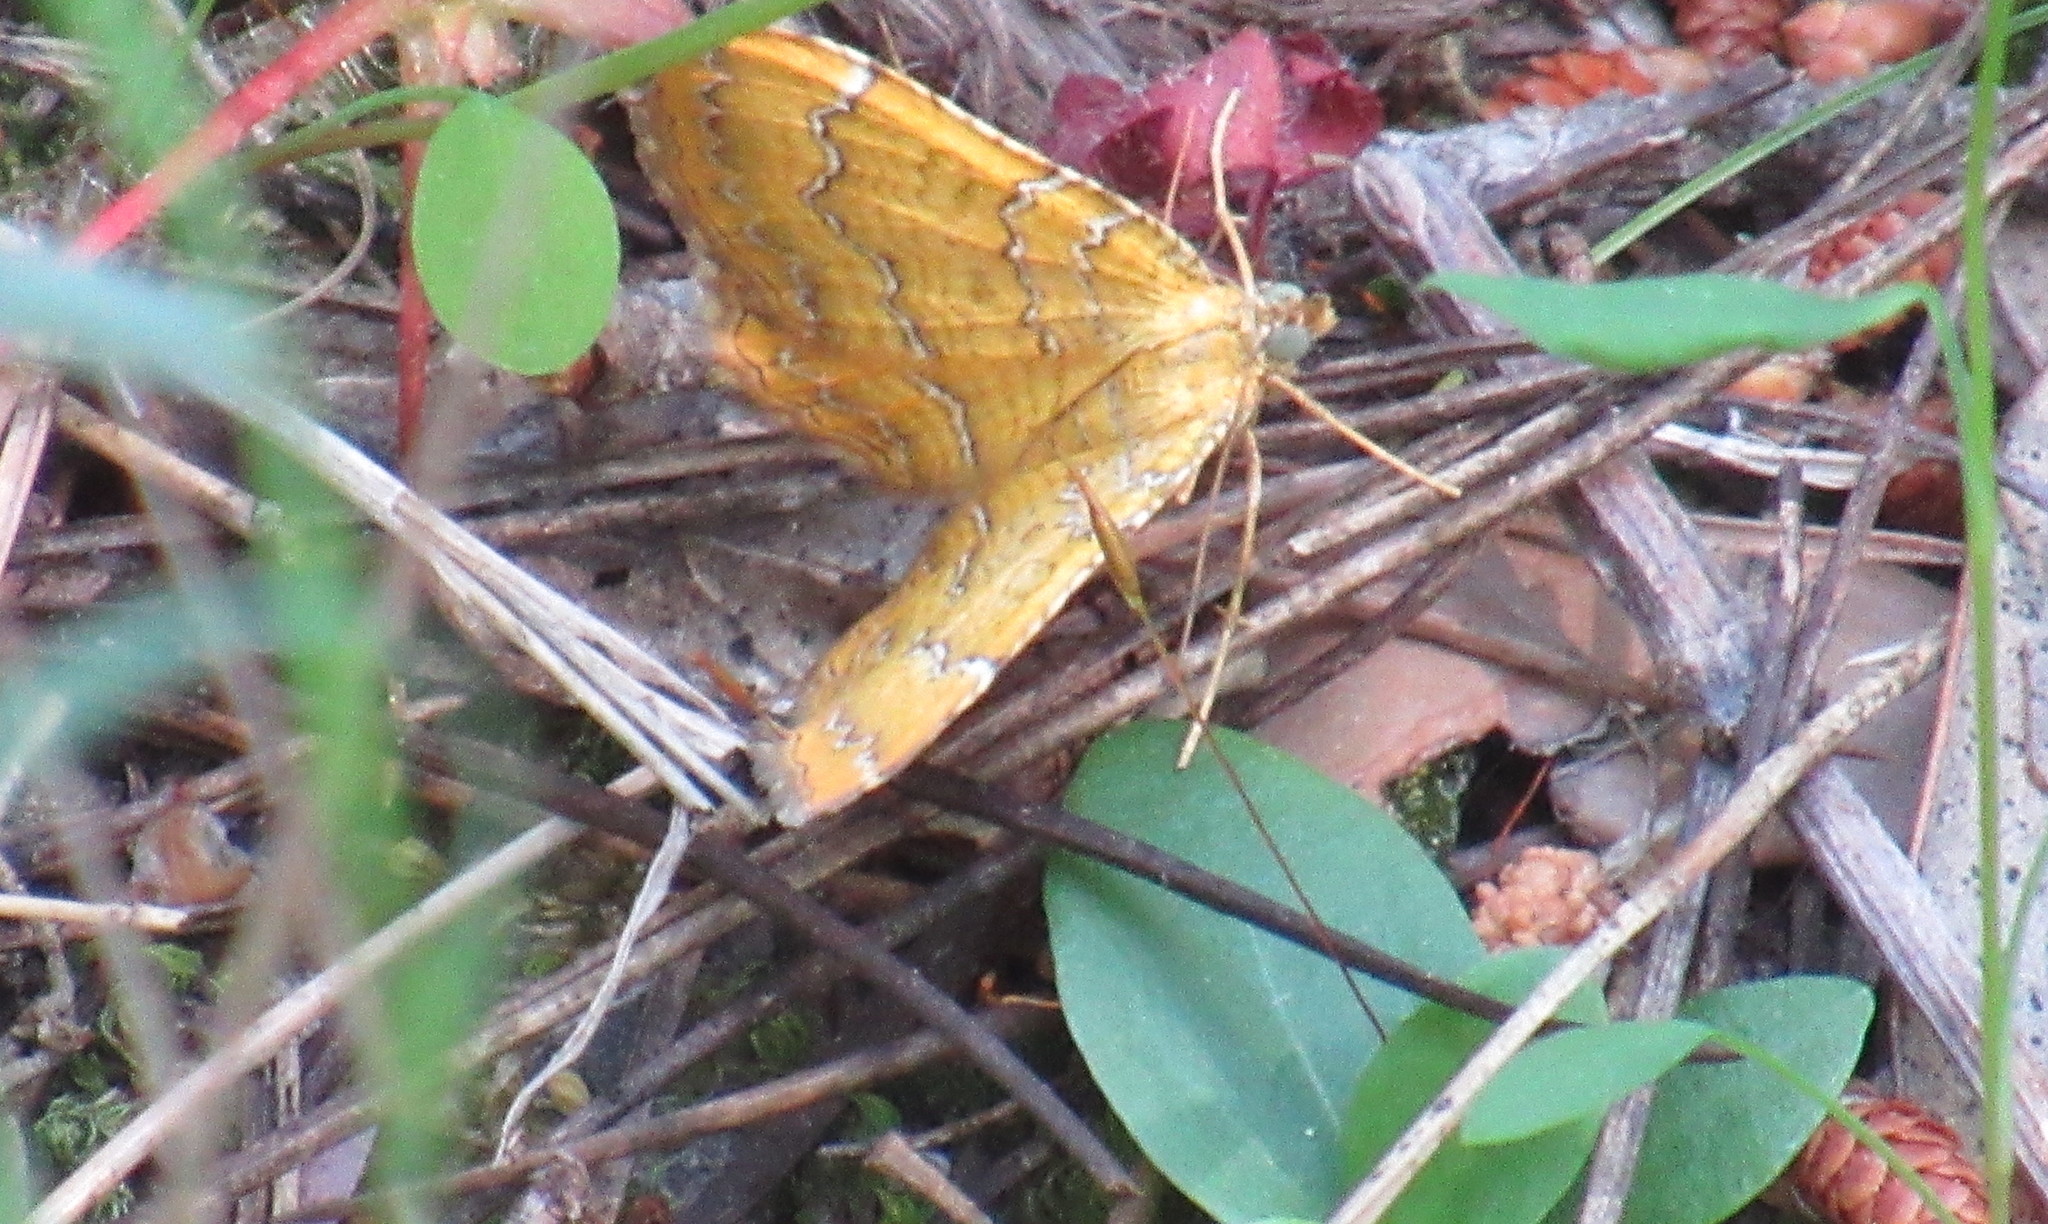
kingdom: Animalia
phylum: Arthropoda
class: Insecta
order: Lepidoptera
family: Geometridae
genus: Camptogramma
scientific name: Camptogramma bilineata
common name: Yellow shell
